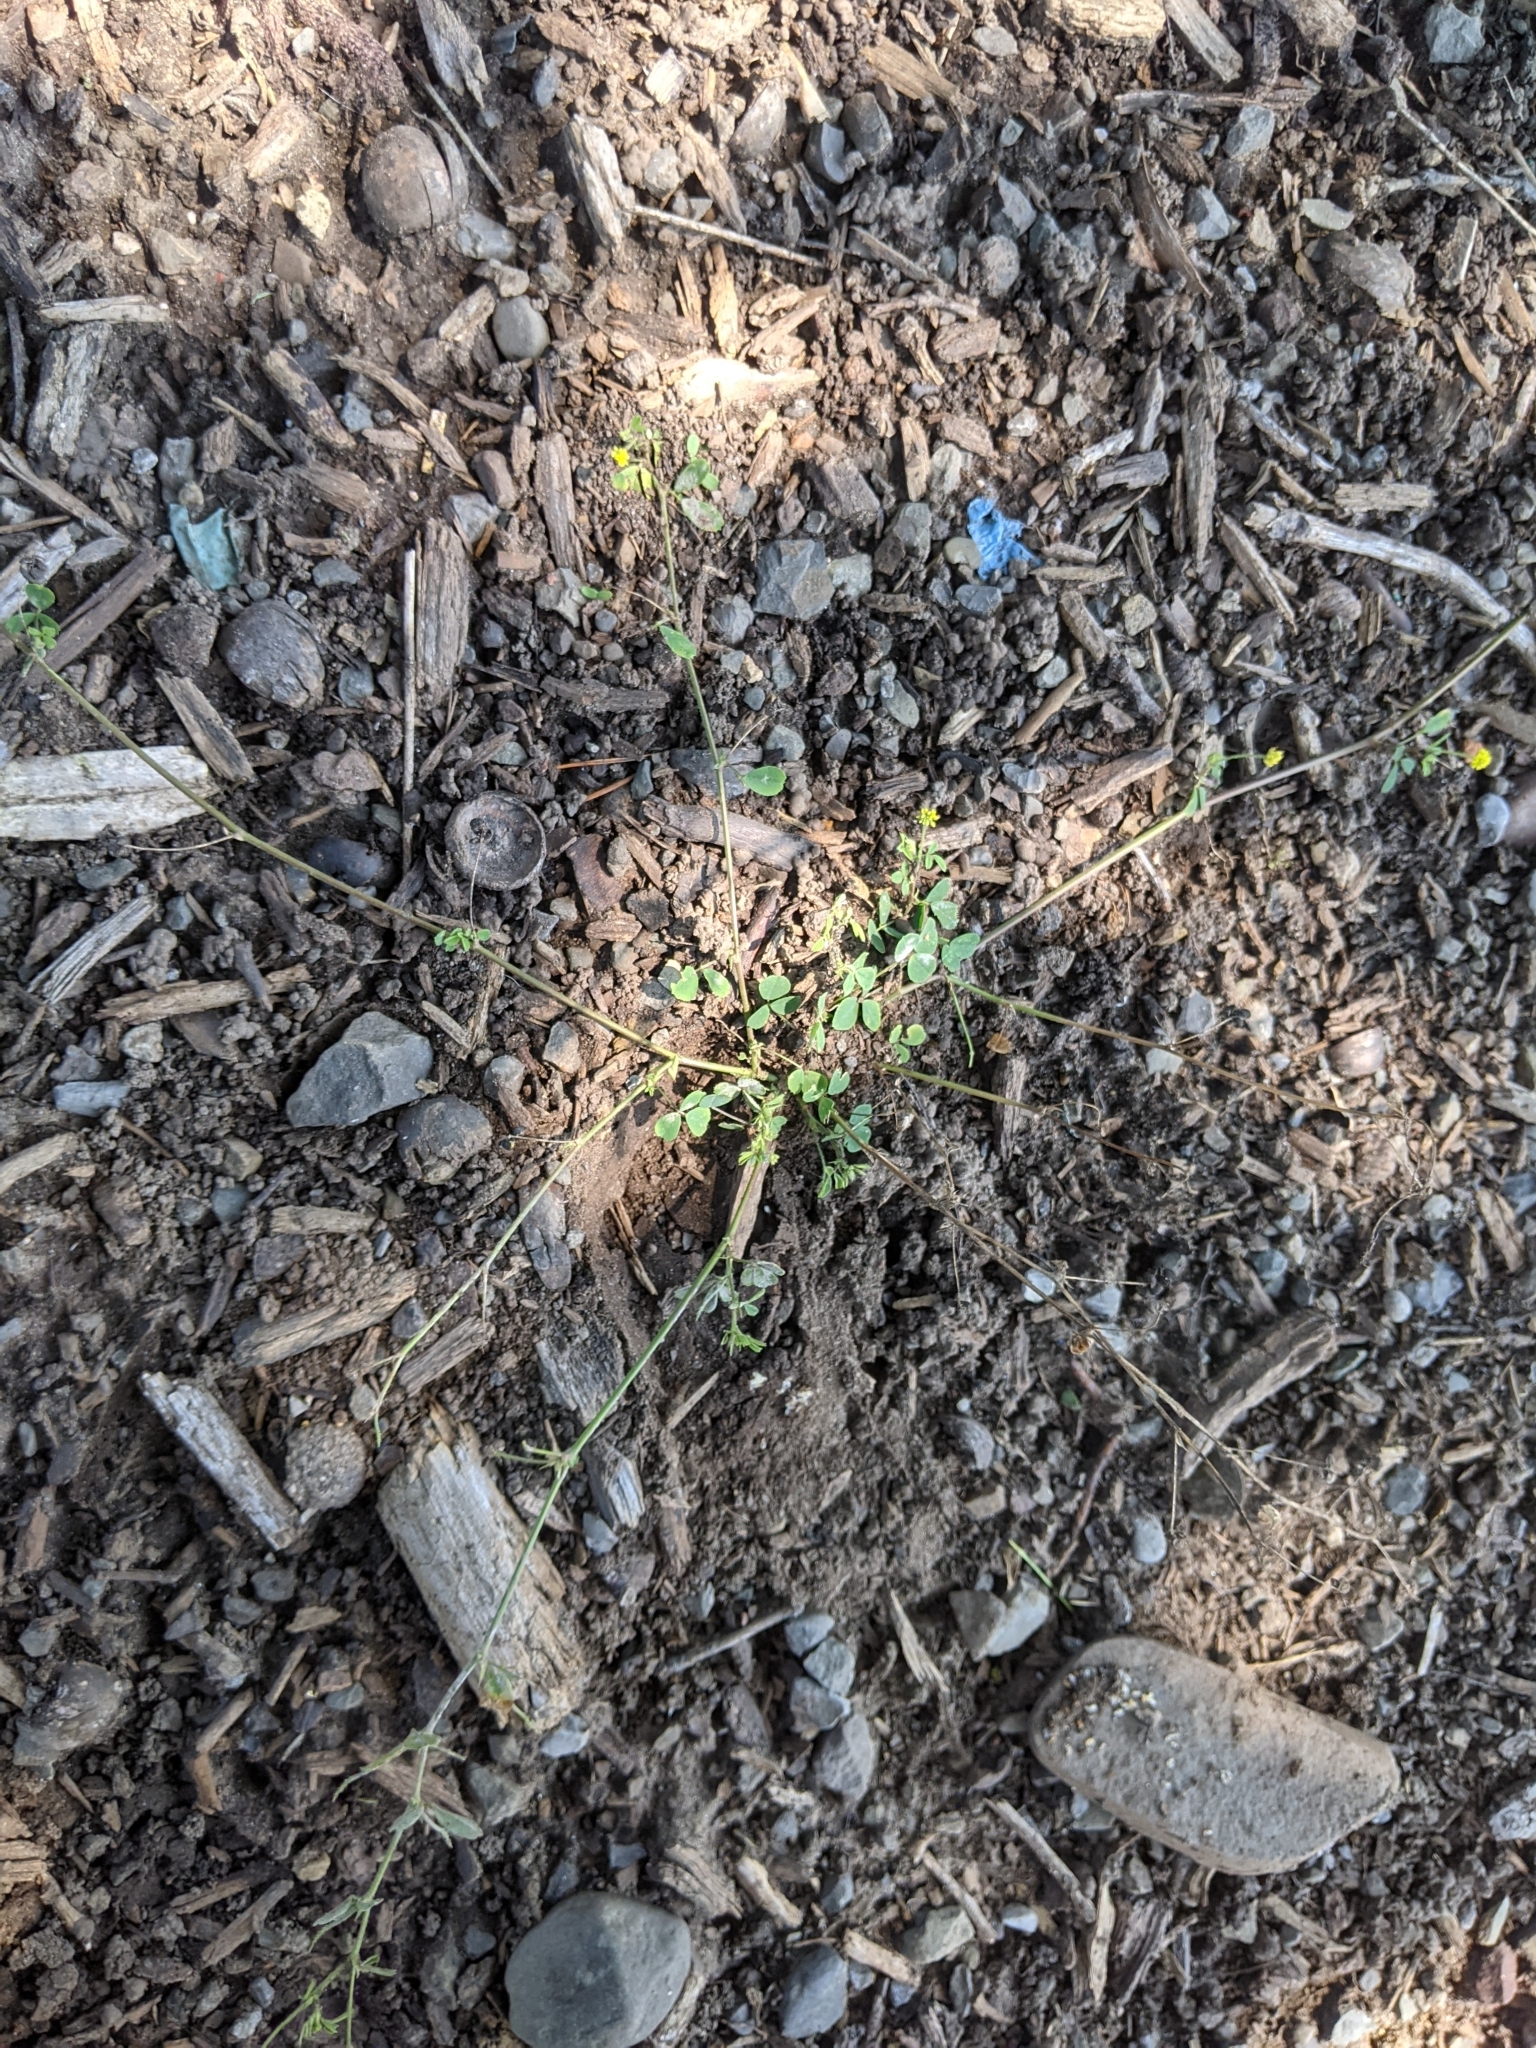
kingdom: Plantae
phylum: Tracheophyta
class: Magnoliopsida
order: Fabales
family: Fabaceae
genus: Medicago
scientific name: Medicago lupulina
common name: Black medick
